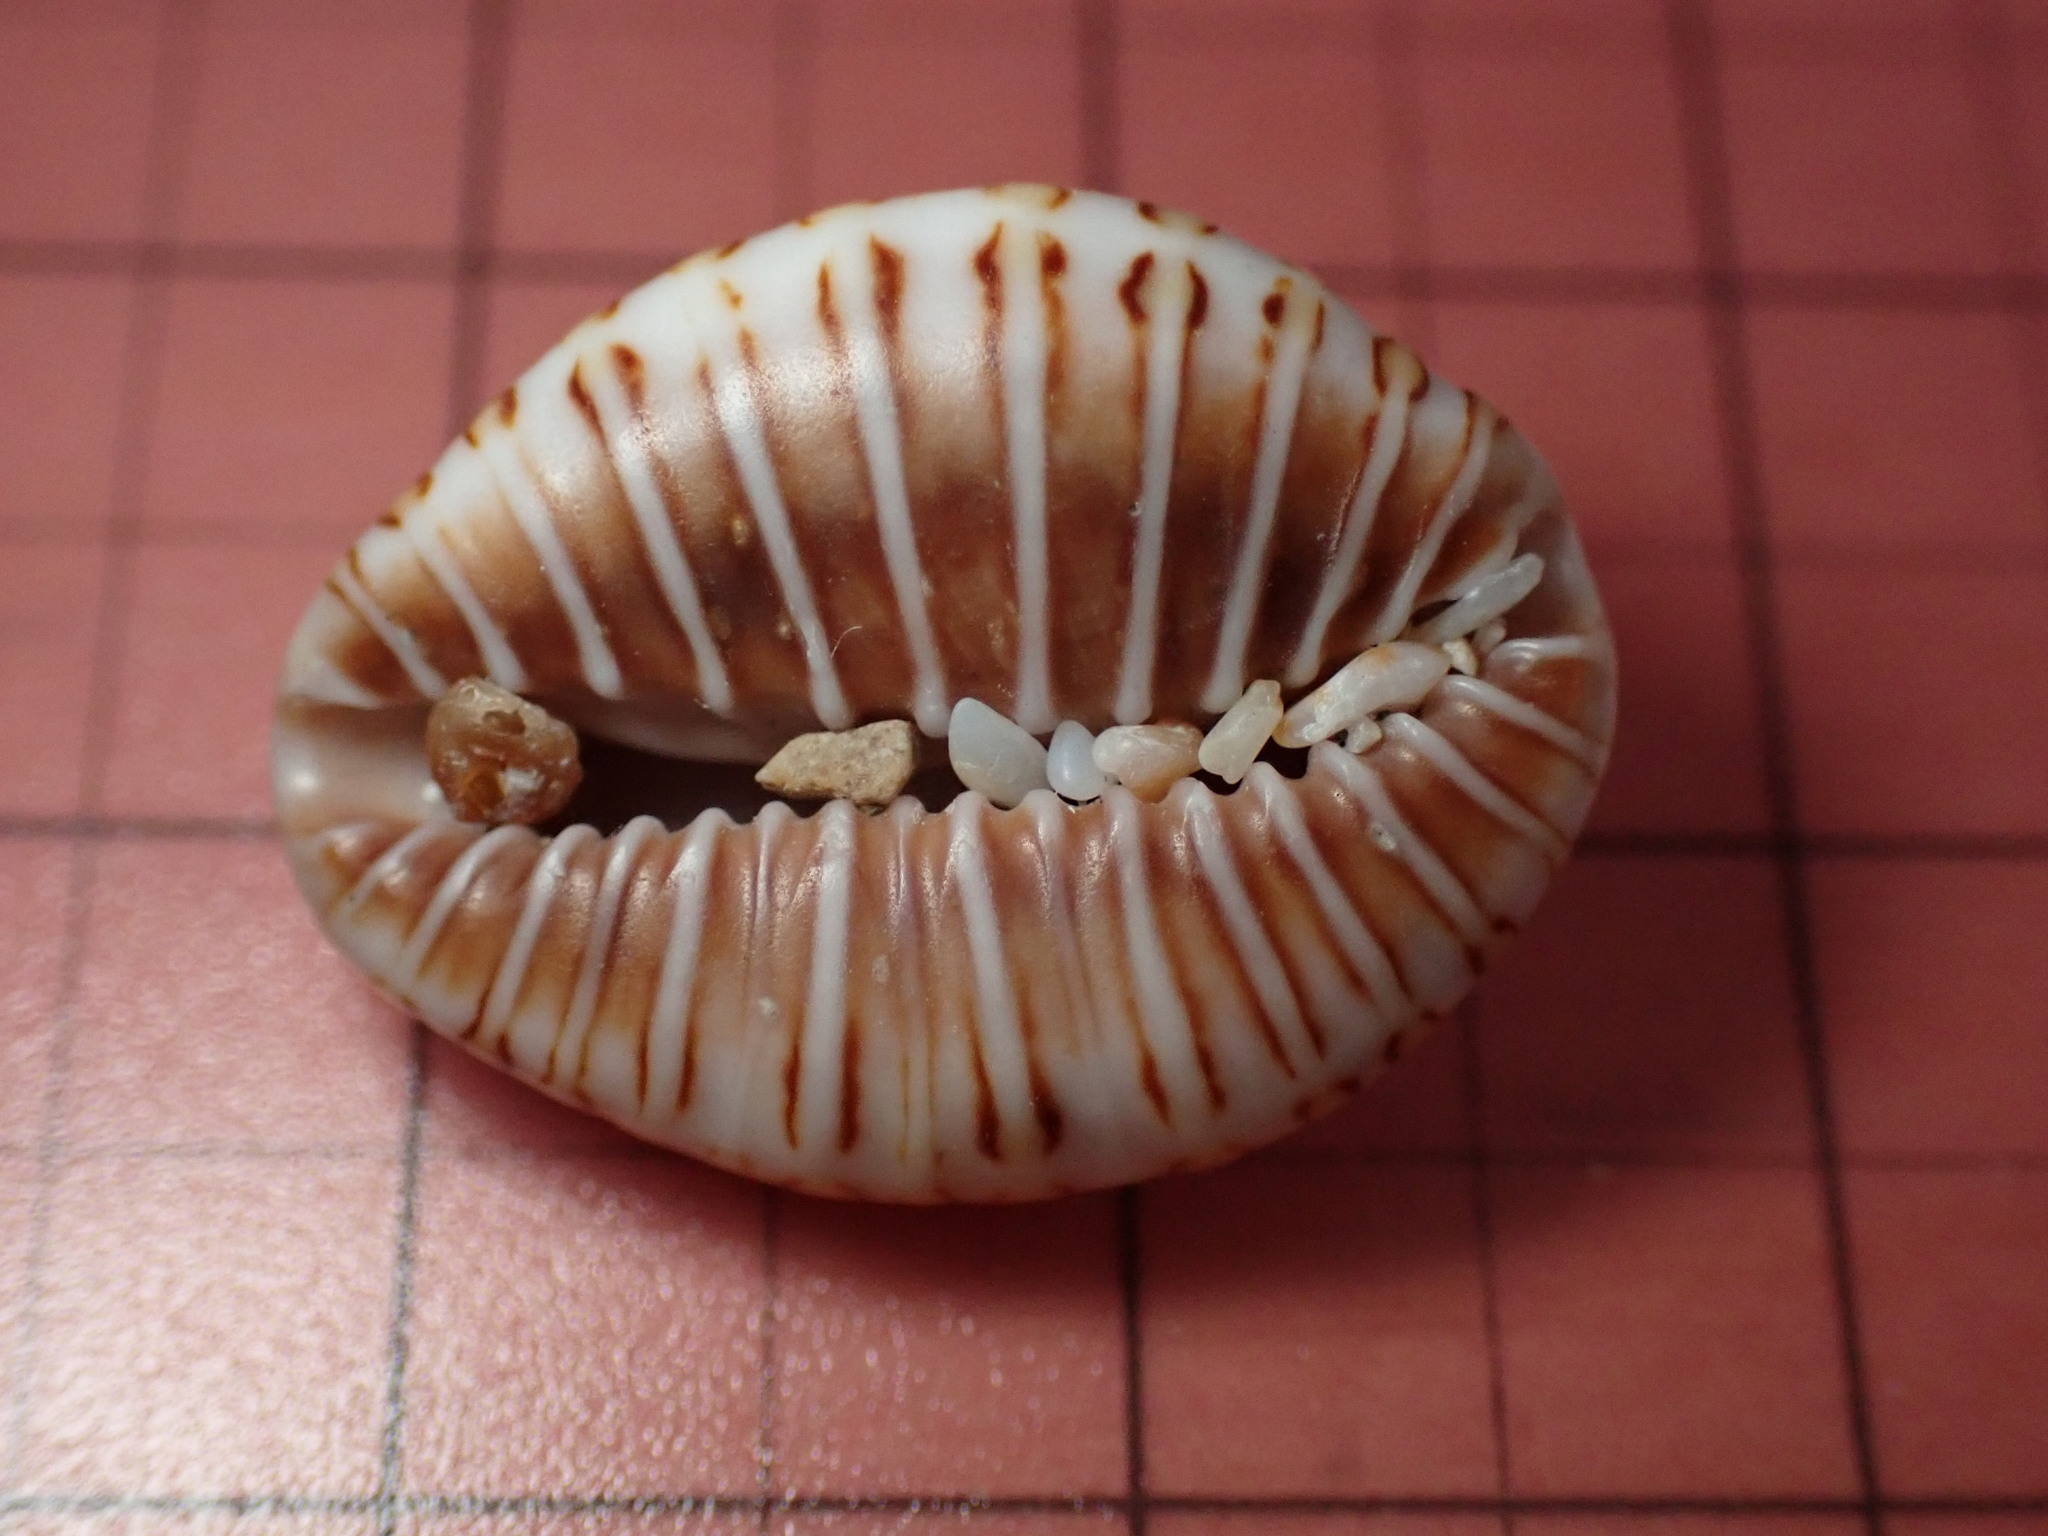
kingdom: Animalia
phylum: Mollusca
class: Gastropoda
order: Littorinimorpha
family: Pediculariidae
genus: Jenneria
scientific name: Jenneria pustulata
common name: Pustuled cowrie
